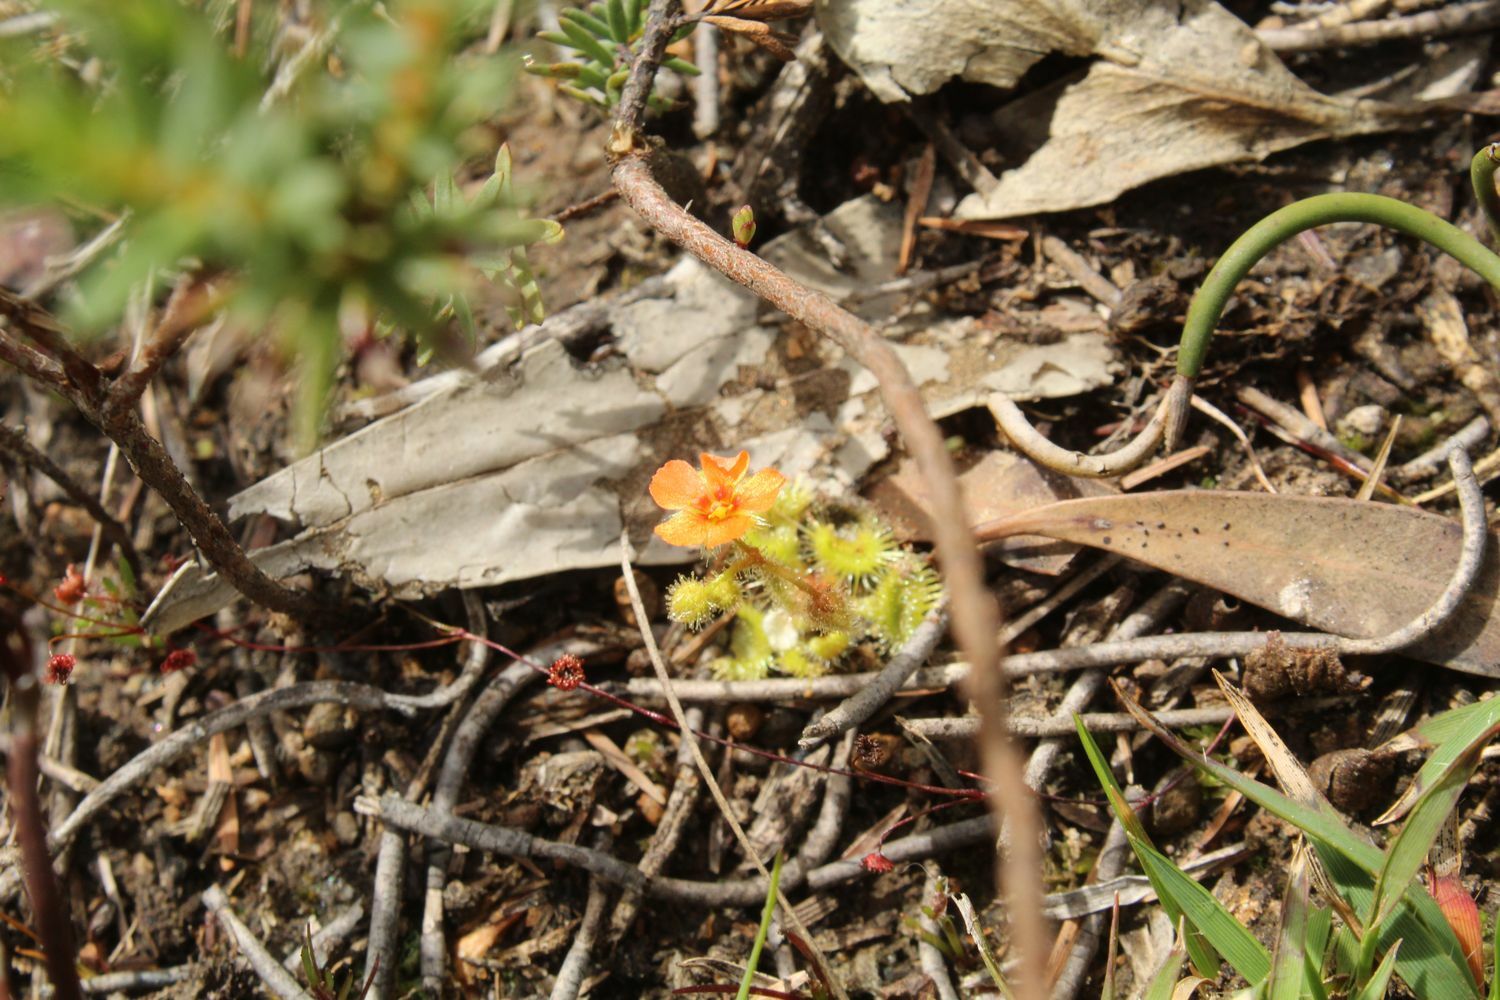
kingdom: Plantae
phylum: Tracheophyta
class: Magnoliopsida
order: Caryophyllales
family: Droseraceae
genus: Drosera
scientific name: Drosera glanduligera
